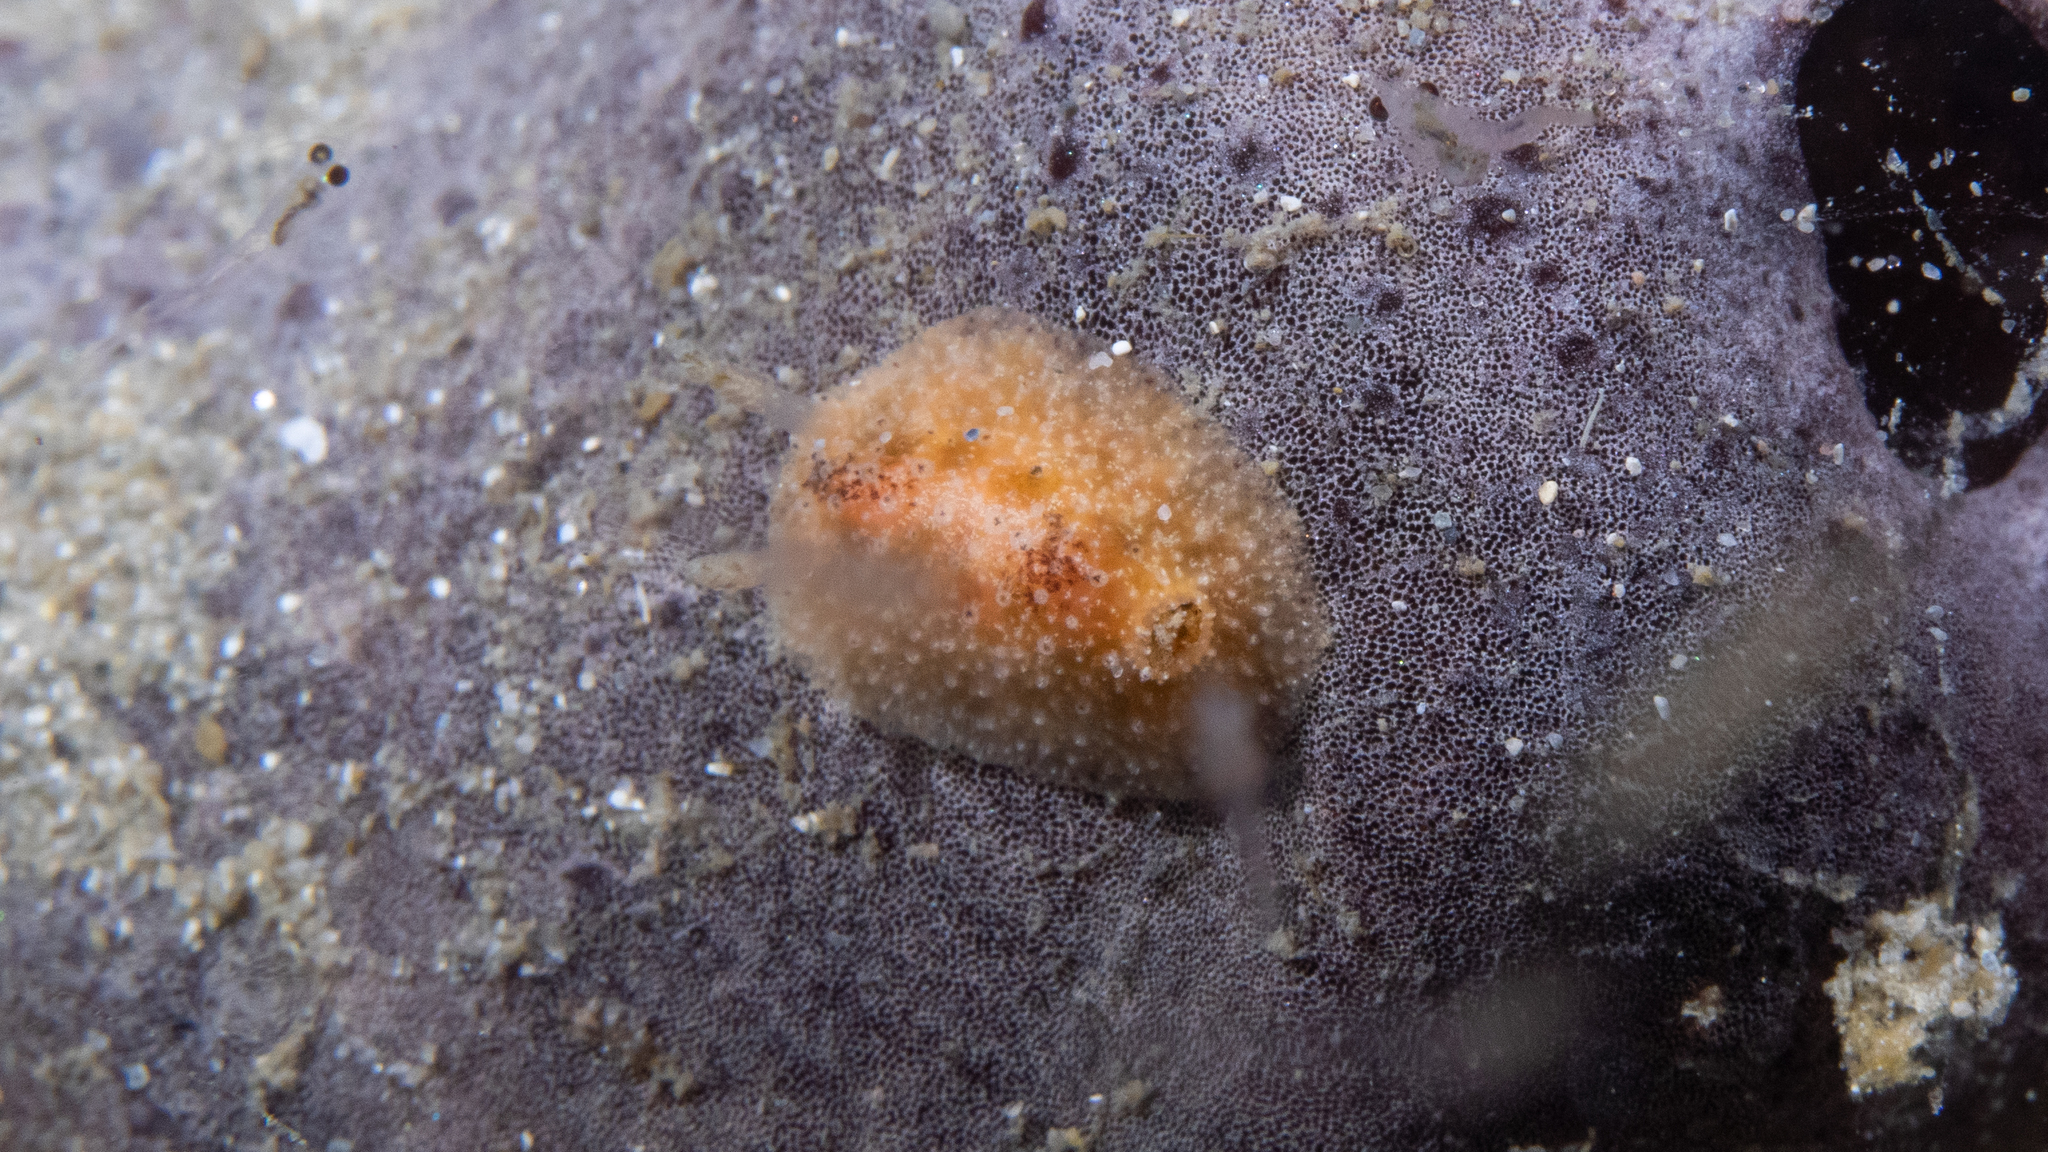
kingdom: Animalia
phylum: Mollusca
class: Gastropoda
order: Nudibranchia
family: Dorididae
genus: Doris
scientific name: Doris cameroni
